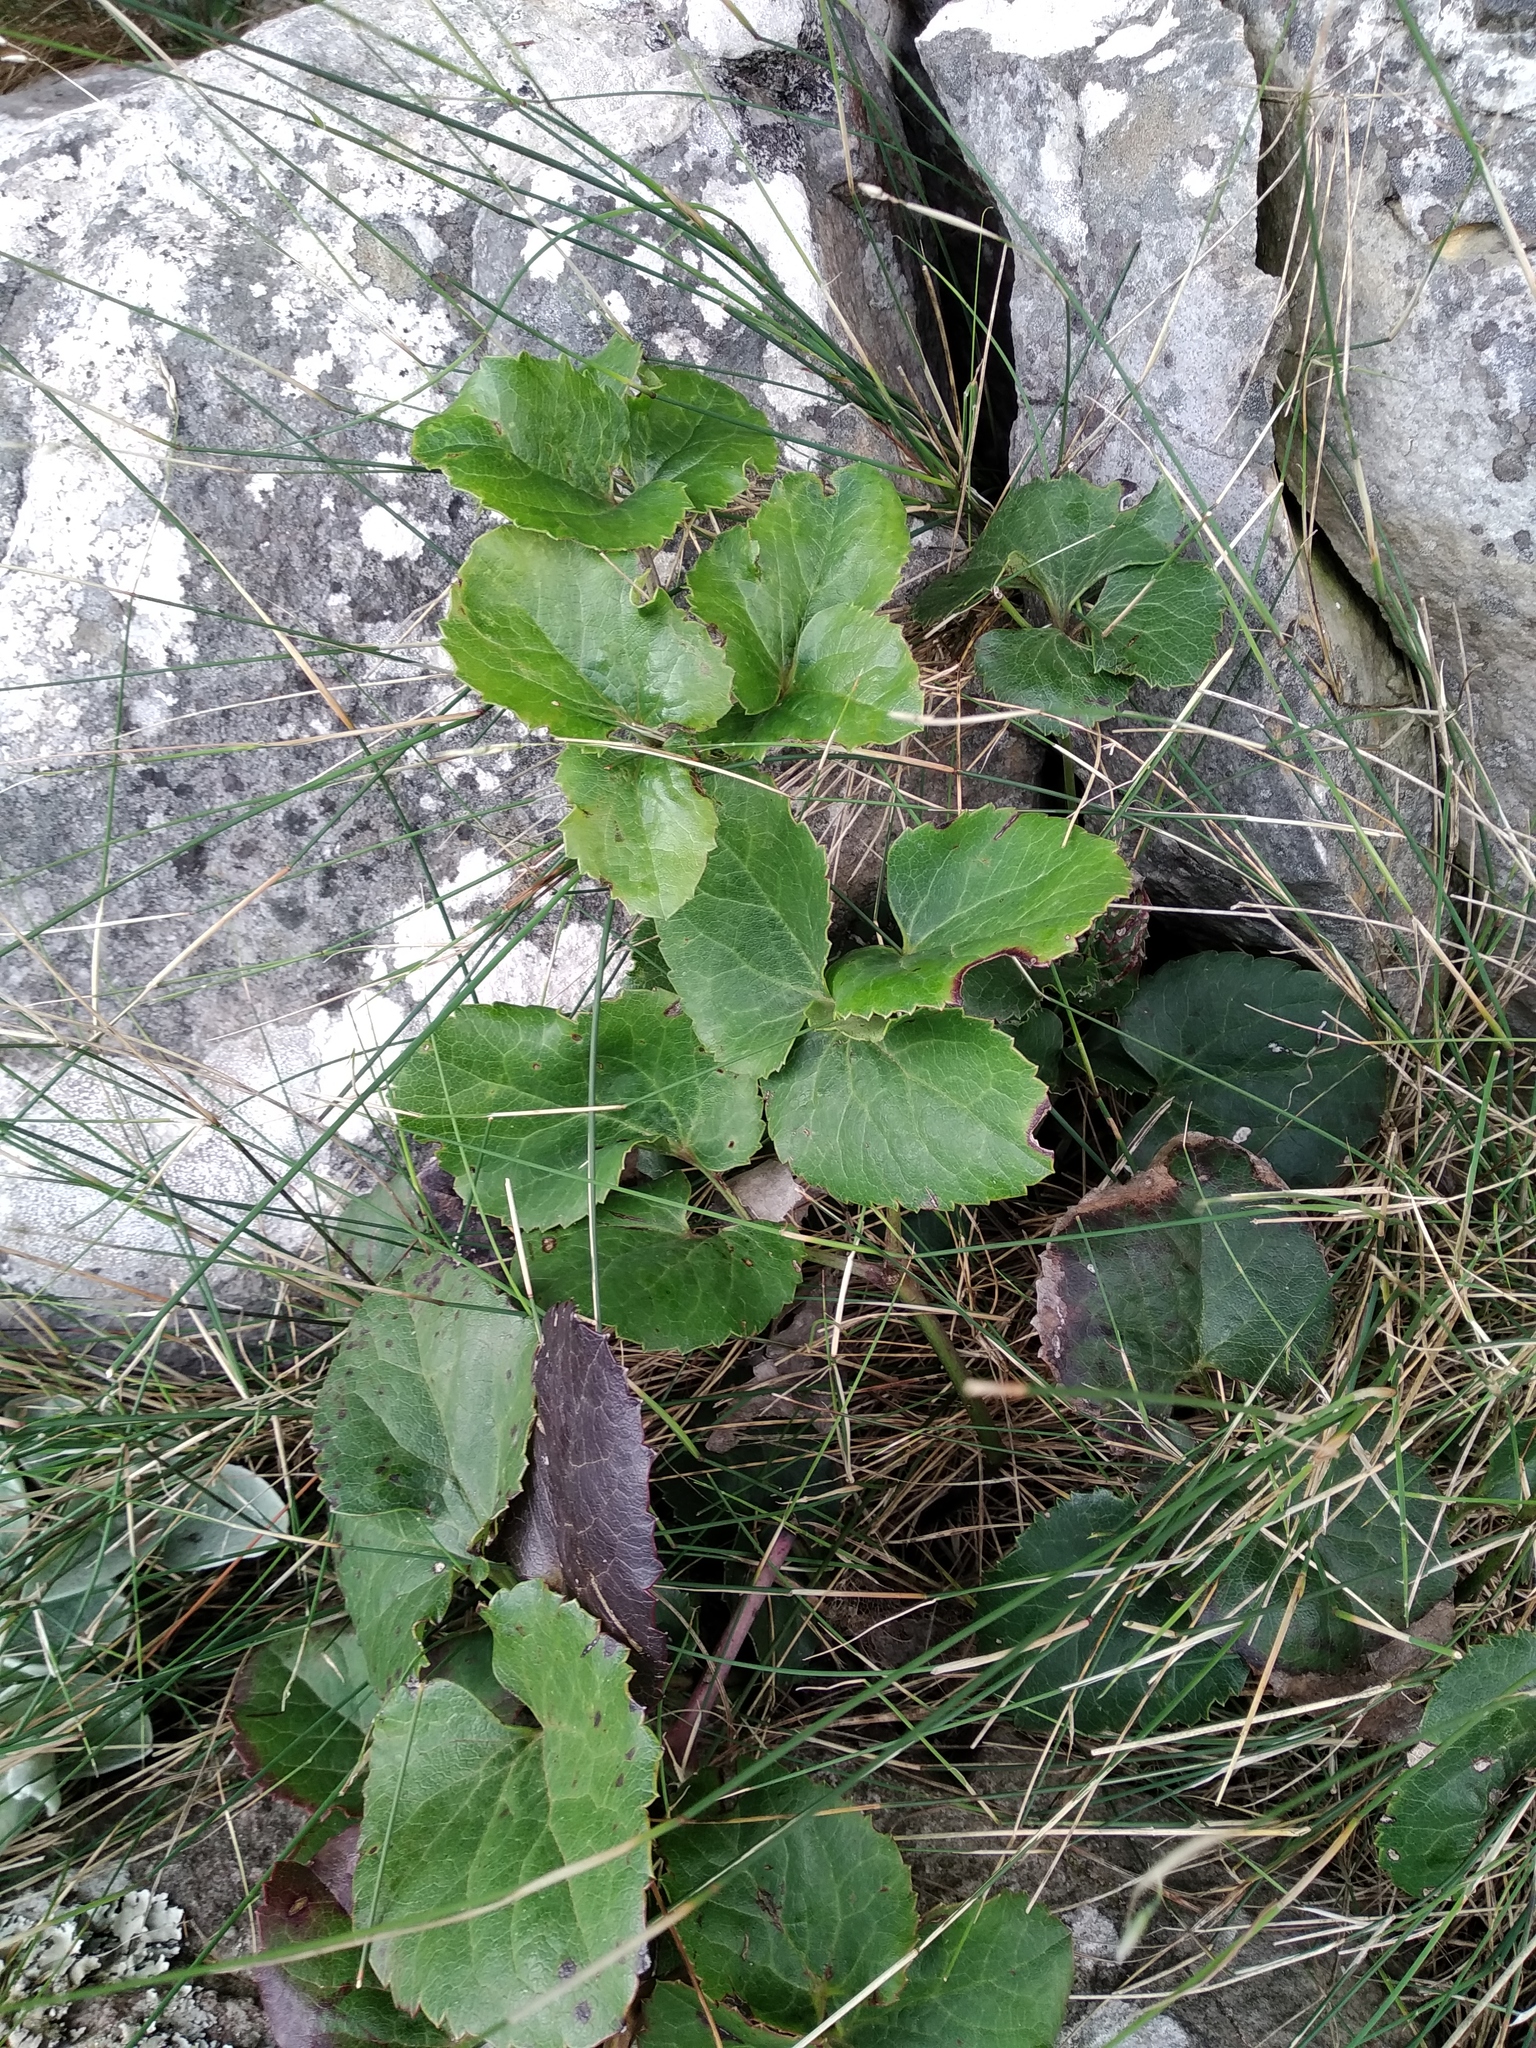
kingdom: Plantae
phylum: Tracheophyta
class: Magnoliopsida
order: Ranunculales
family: Ranunculaceae
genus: Knowltonia
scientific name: Knowltonia vesicatoria
